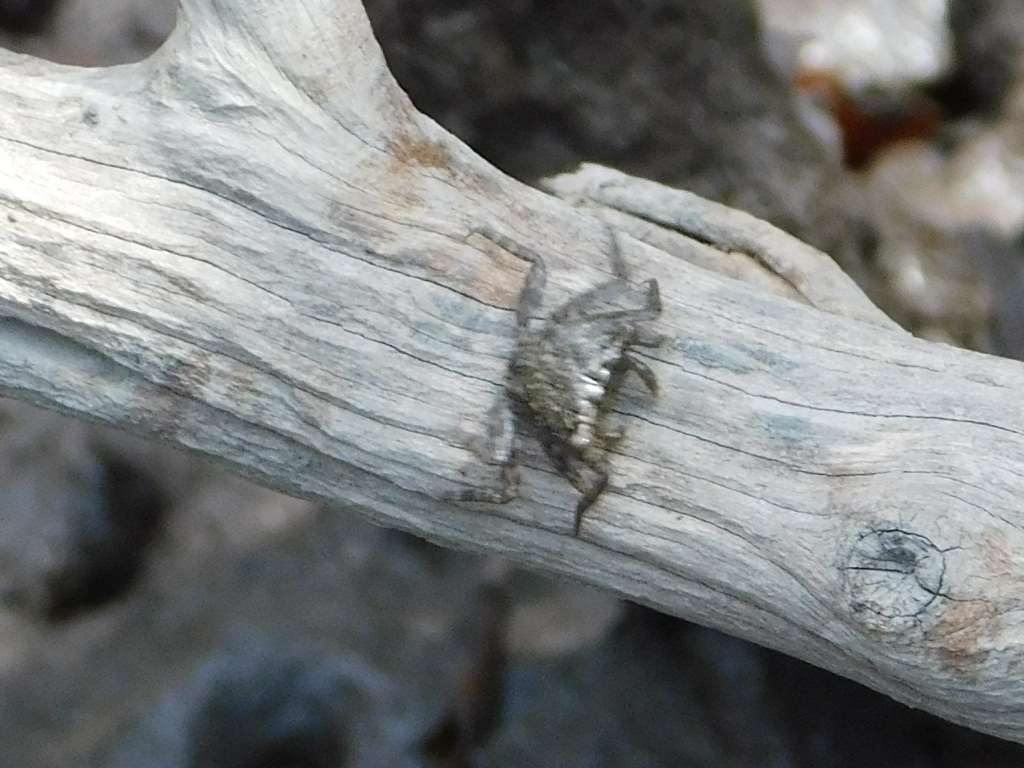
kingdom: Animalia
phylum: Arthropoda
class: Malacostraca
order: Decapoda
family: Sesarmidae
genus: Aratus
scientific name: Aratus pisonii
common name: Mangrove crab
